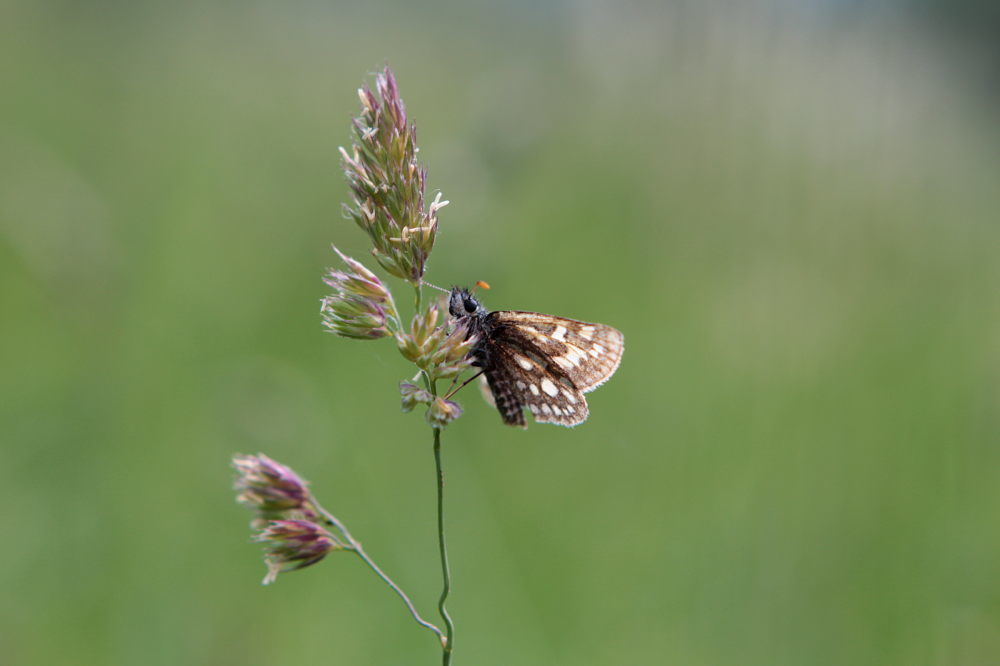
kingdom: Animalia
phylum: Arthropoda
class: Insecta
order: Lepidoptera
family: Hesperiidae
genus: Carterocephalus
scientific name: Carterocephalus palaemon
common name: Chequered skipper
